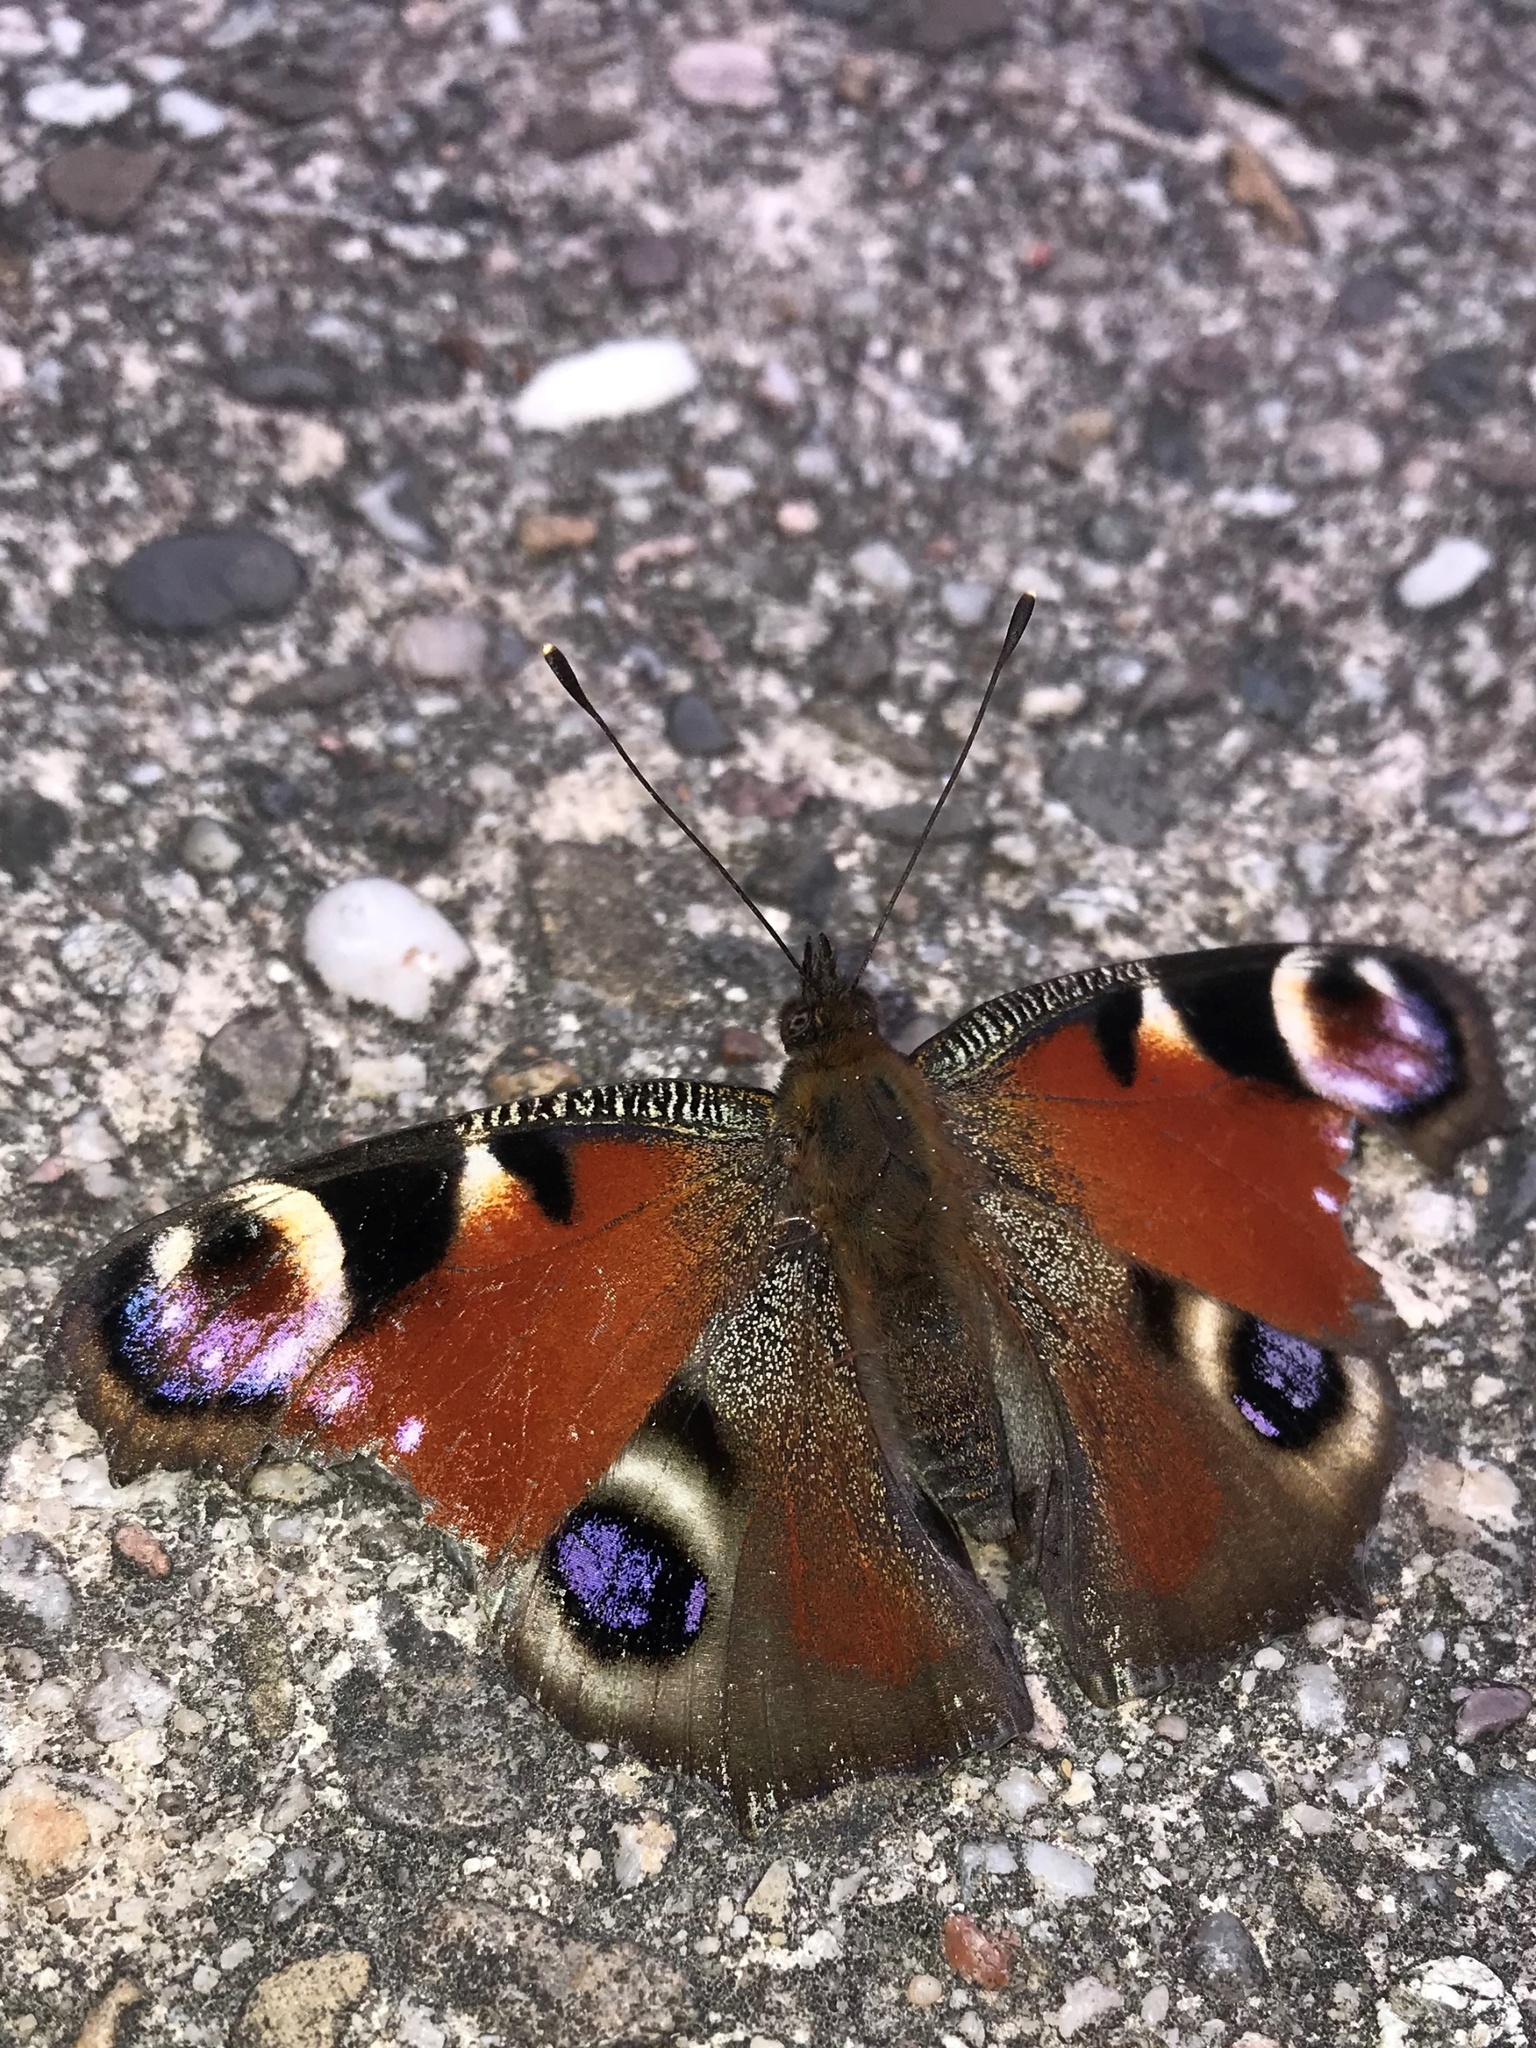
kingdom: Animalia
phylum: Arthropoda
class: Insecta
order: Lepidoptera
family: Nymphalidae
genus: Aglais
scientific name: Aglais io
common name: Peacock
